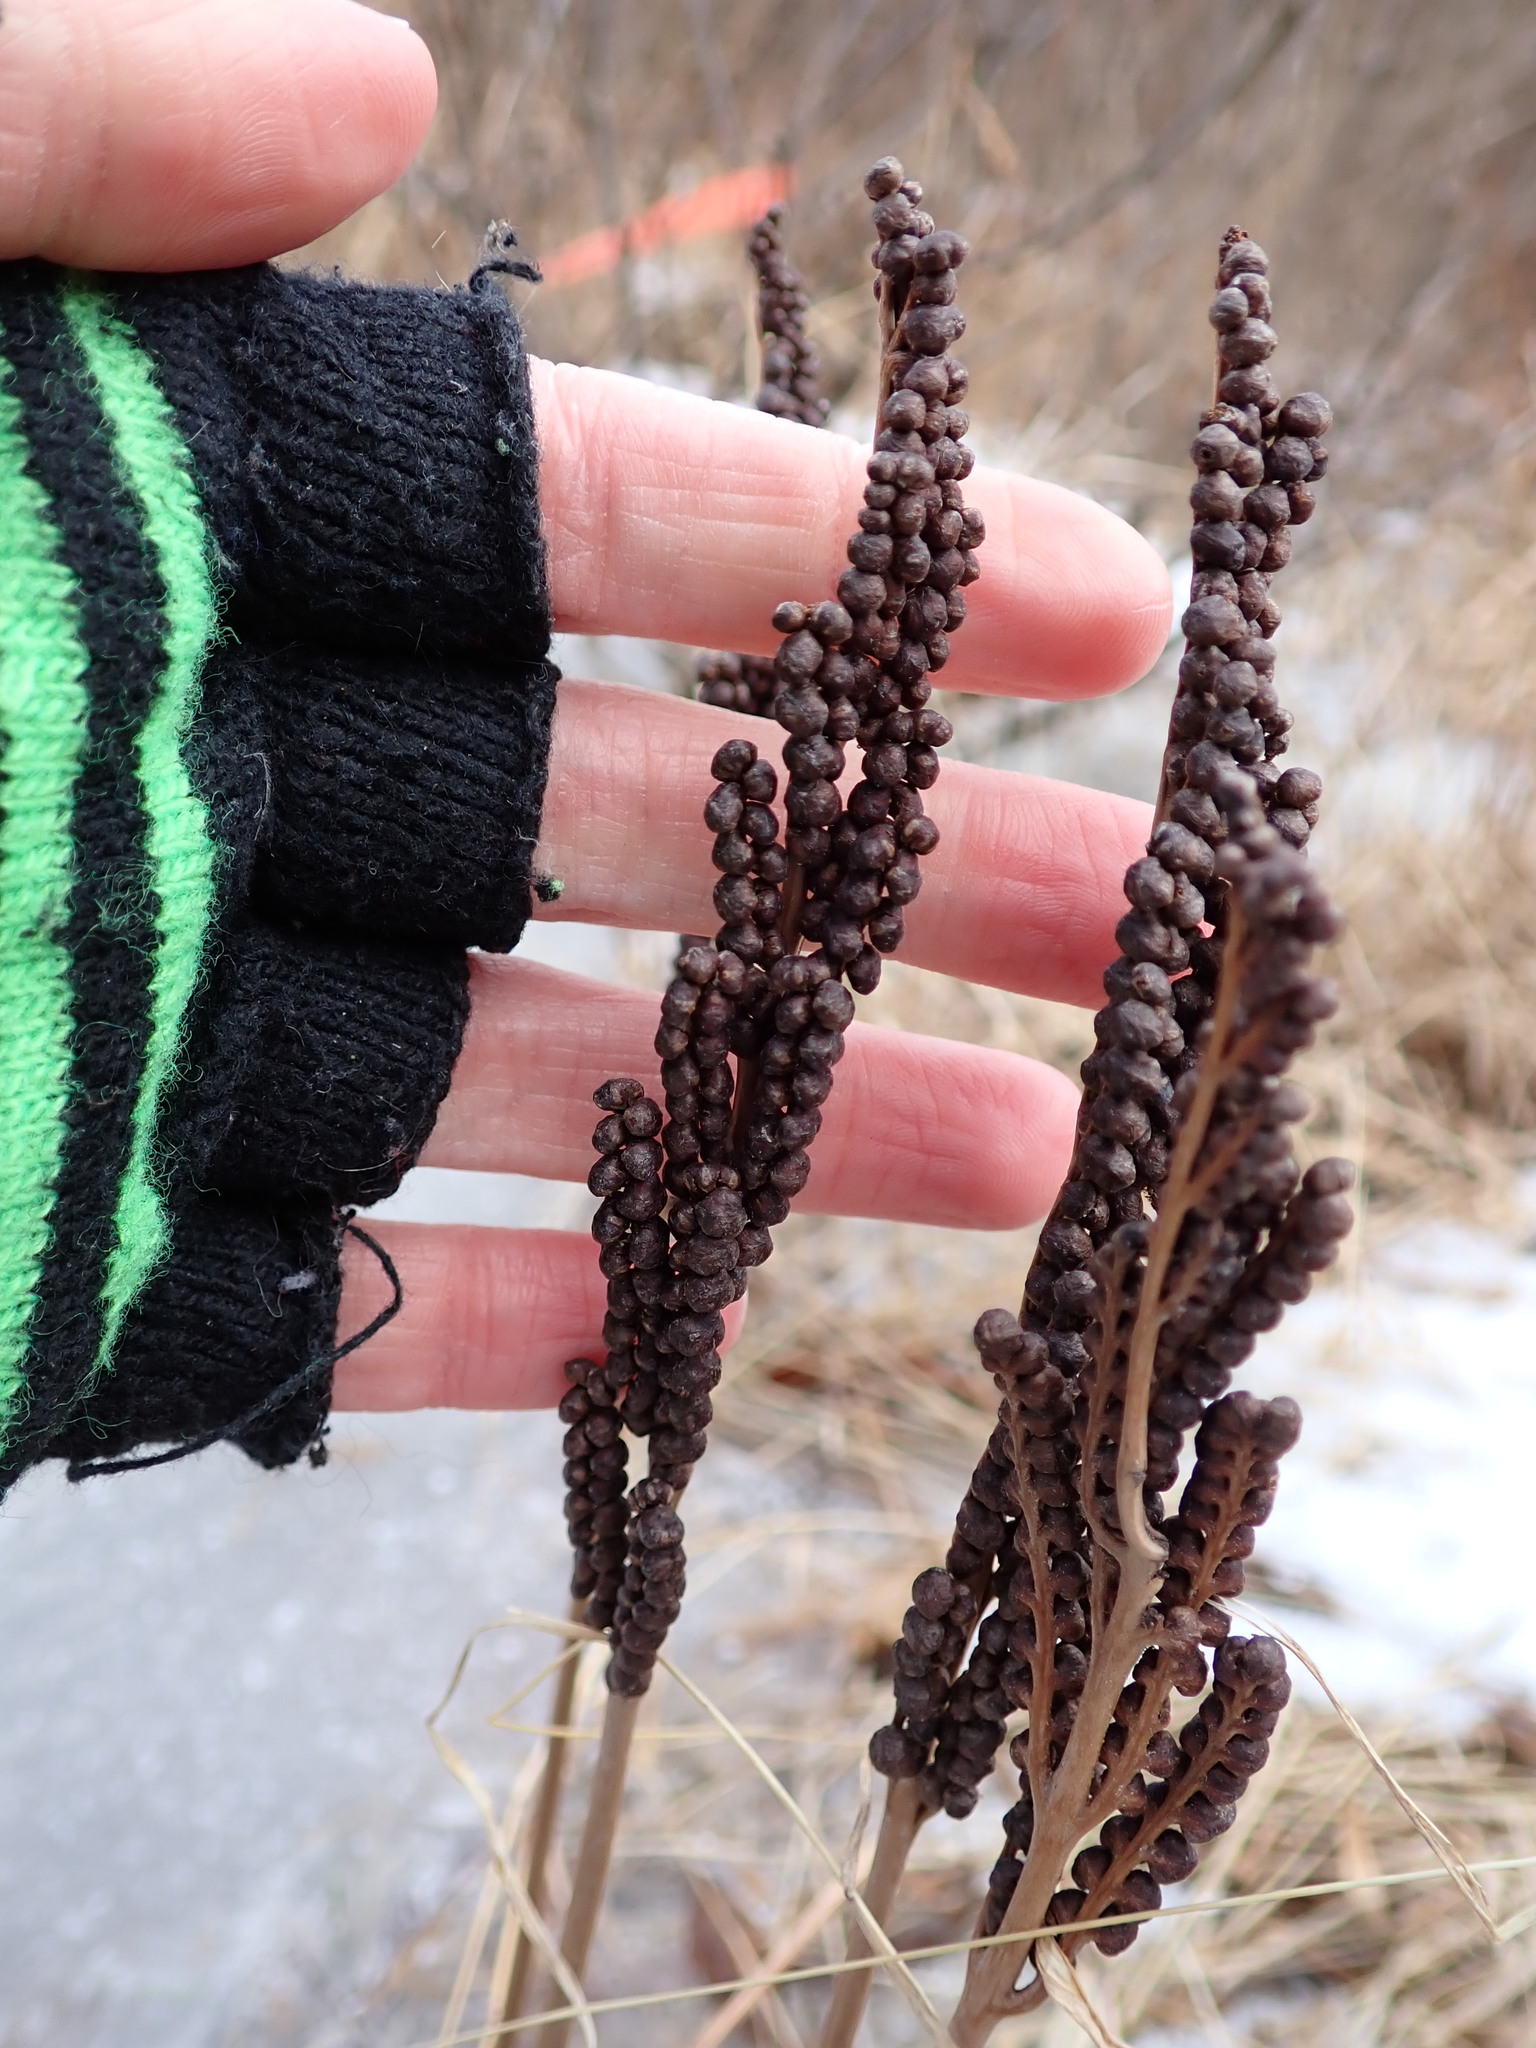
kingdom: Plantae
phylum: Tracheophyta
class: Polypodiopsida
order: Polypodiales
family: Onocleaceae
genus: Onoclea
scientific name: Onoclea sensibilis
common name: Sensitive fern
